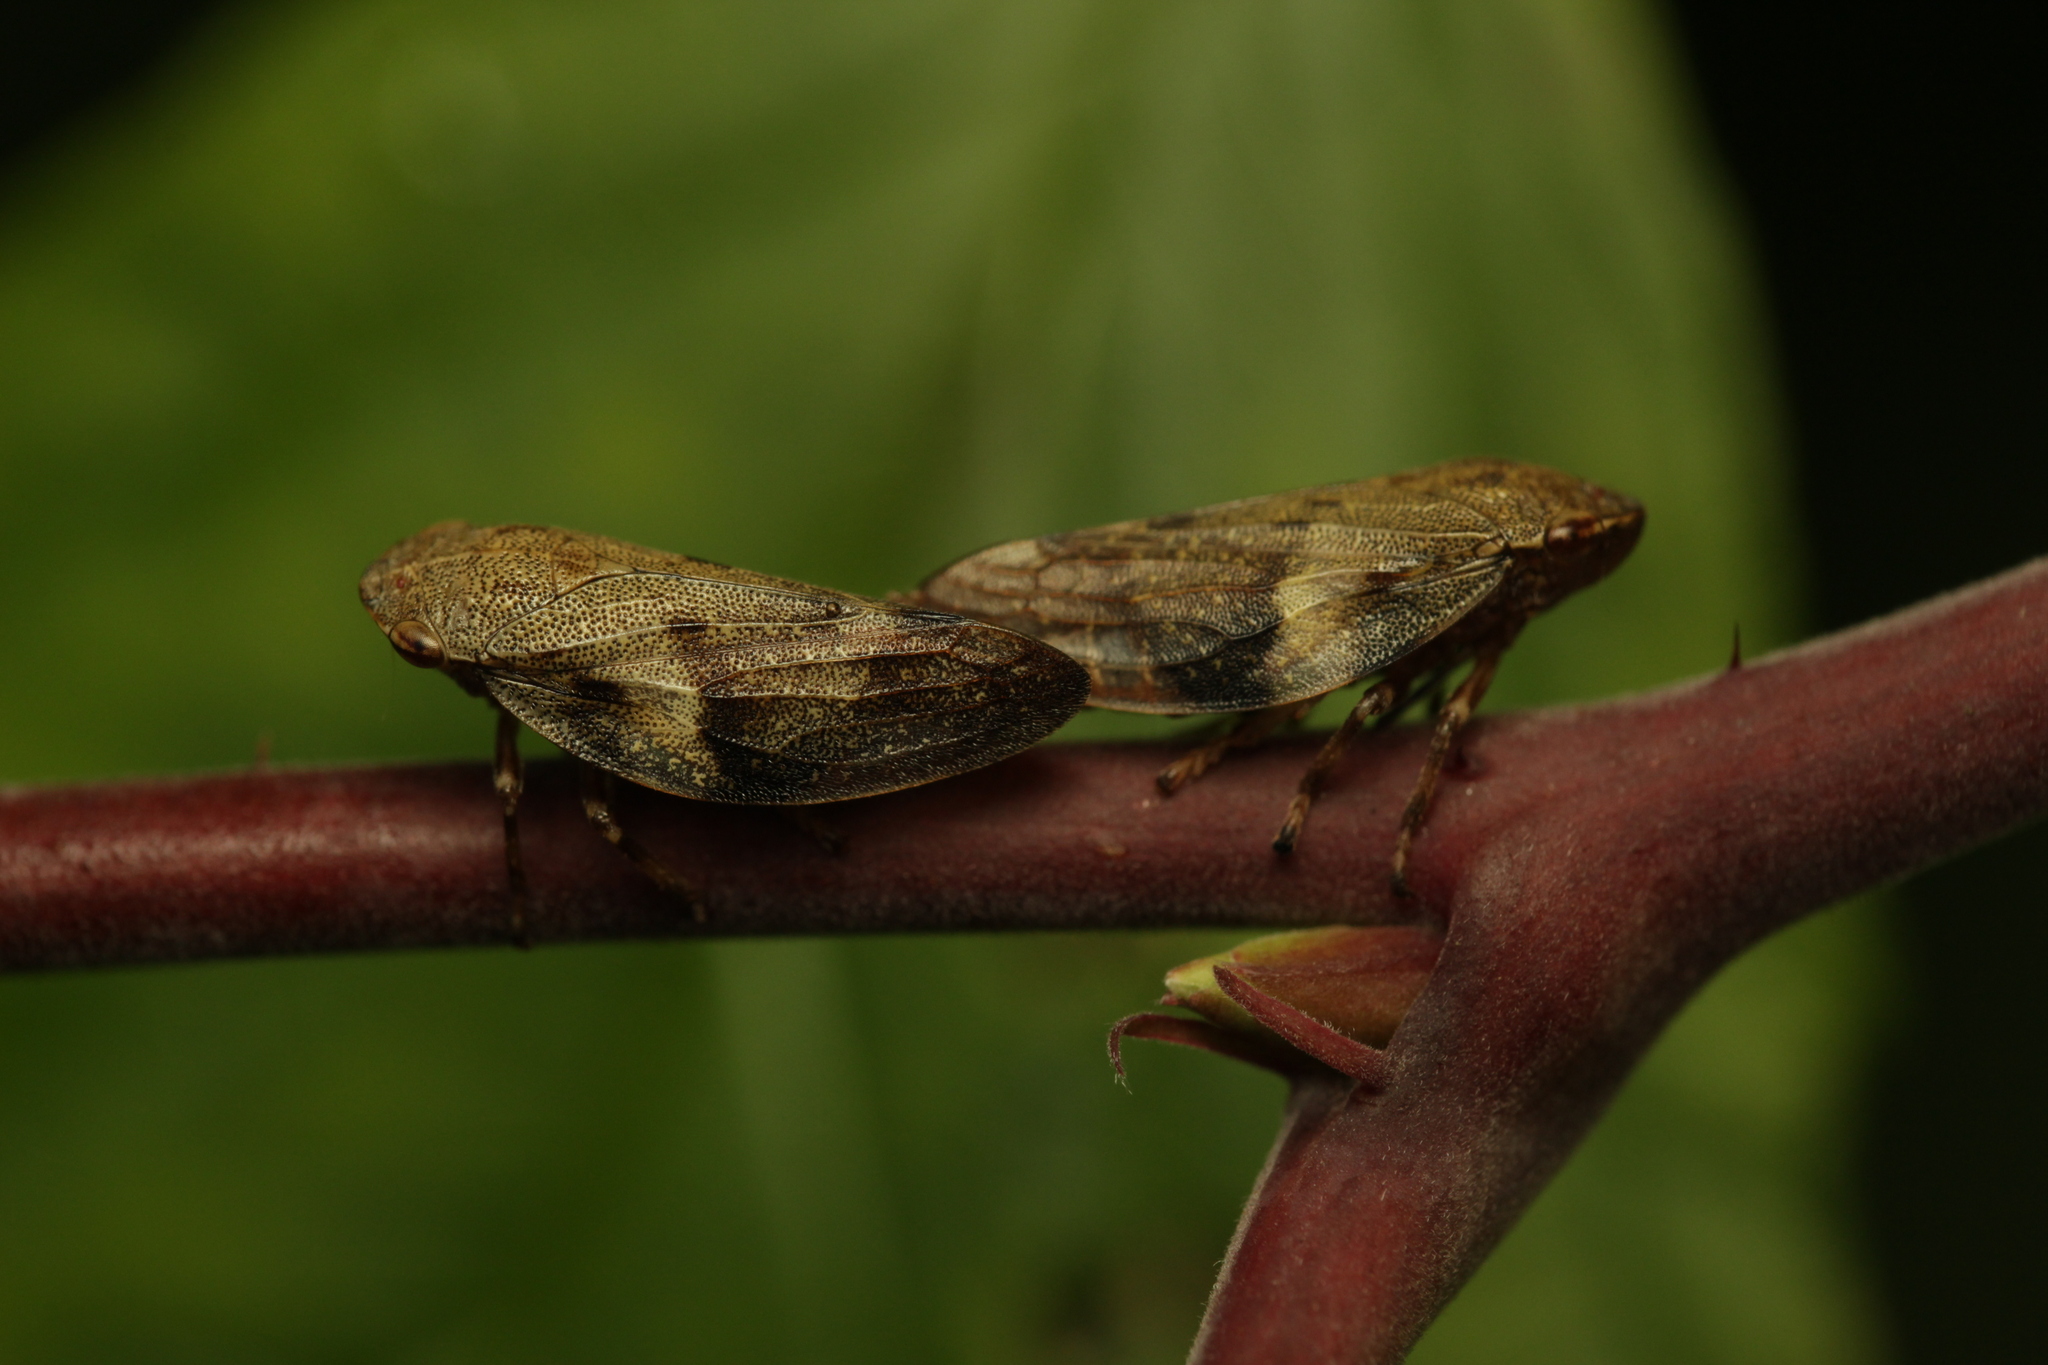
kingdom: Animalia
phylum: Arthropoda
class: Insecta
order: Hemiptera
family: Aphrophoridae
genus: Aphrophora
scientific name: Aphrophora alni
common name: European alder spittlebug
